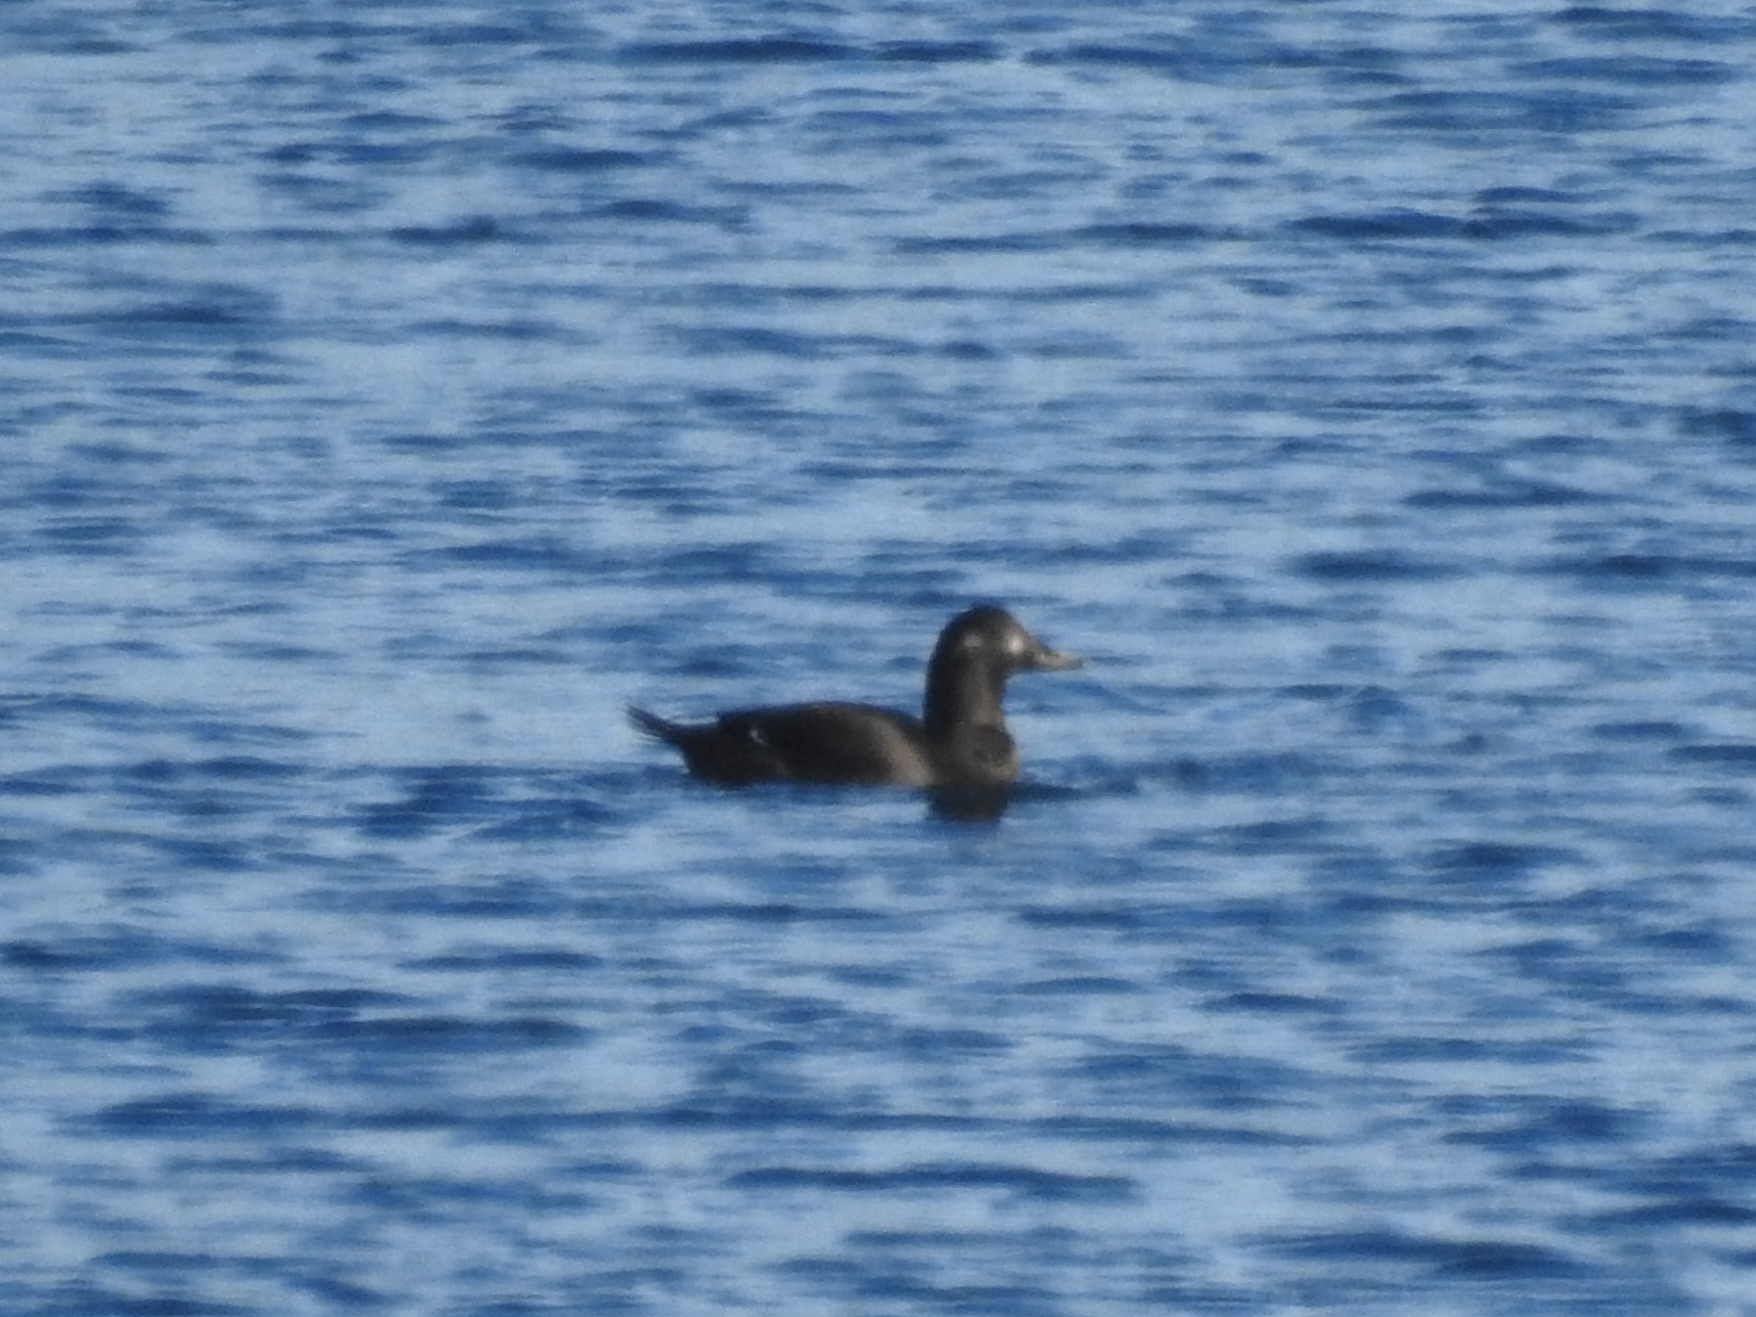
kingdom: Animalia
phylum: Chordata
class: Aves
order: Anseriformes
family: Anatidae
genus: Melanitta
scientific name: Melanitta fusca
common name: Velvet scoter
